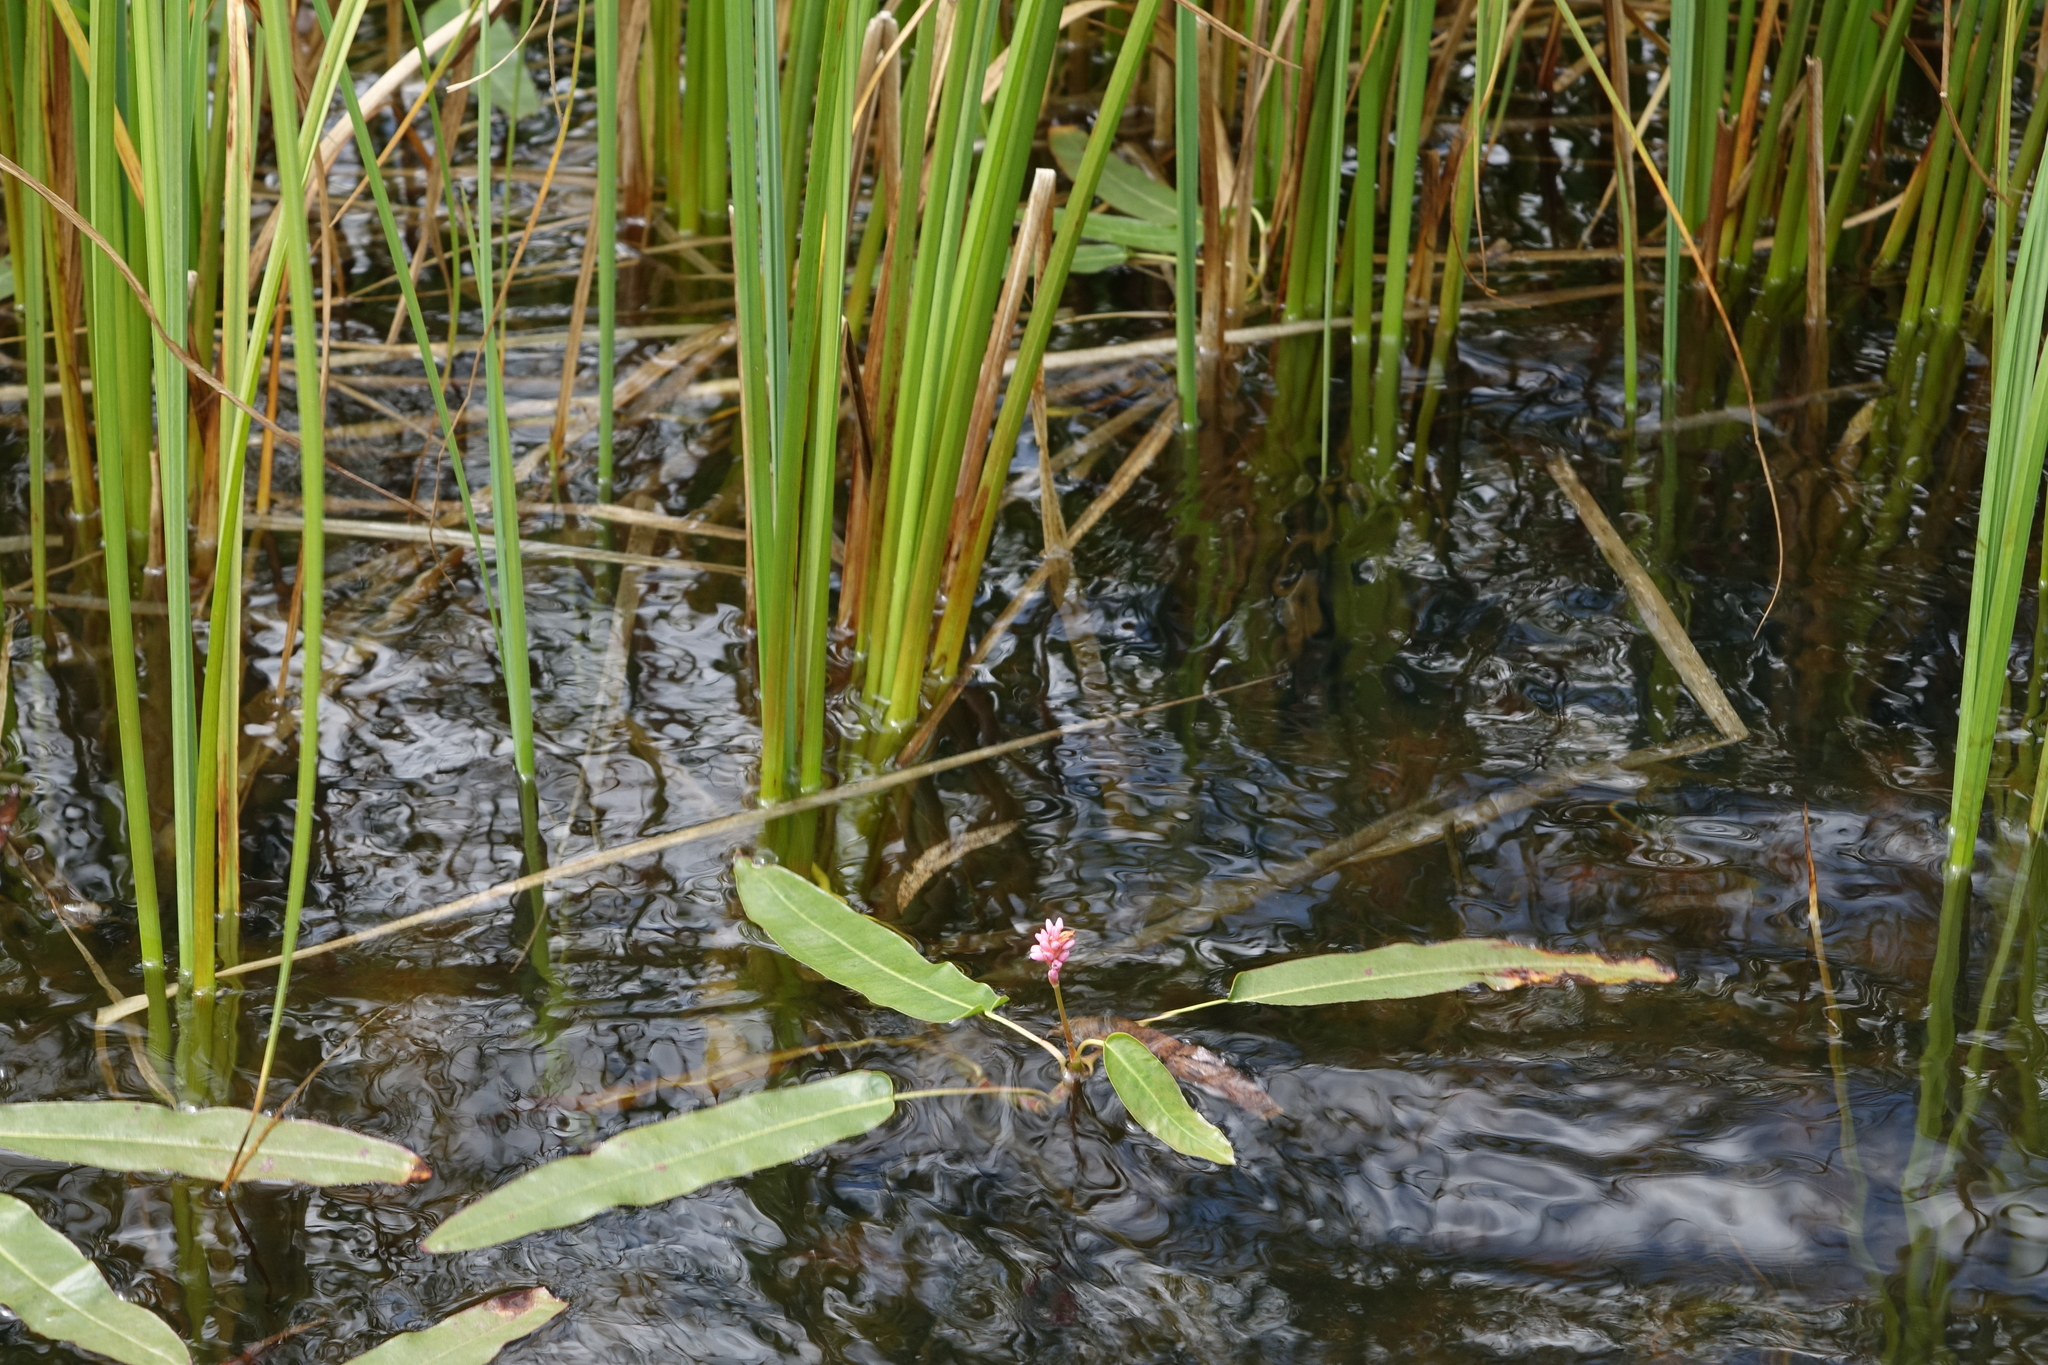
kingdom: Plantae
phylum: Tracheophyta
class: Magnoliopsida
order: Caryophyllales
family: Polygonaceae
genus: Persicaria
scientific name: Persicaria amphibia
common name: Amphibious bistort
